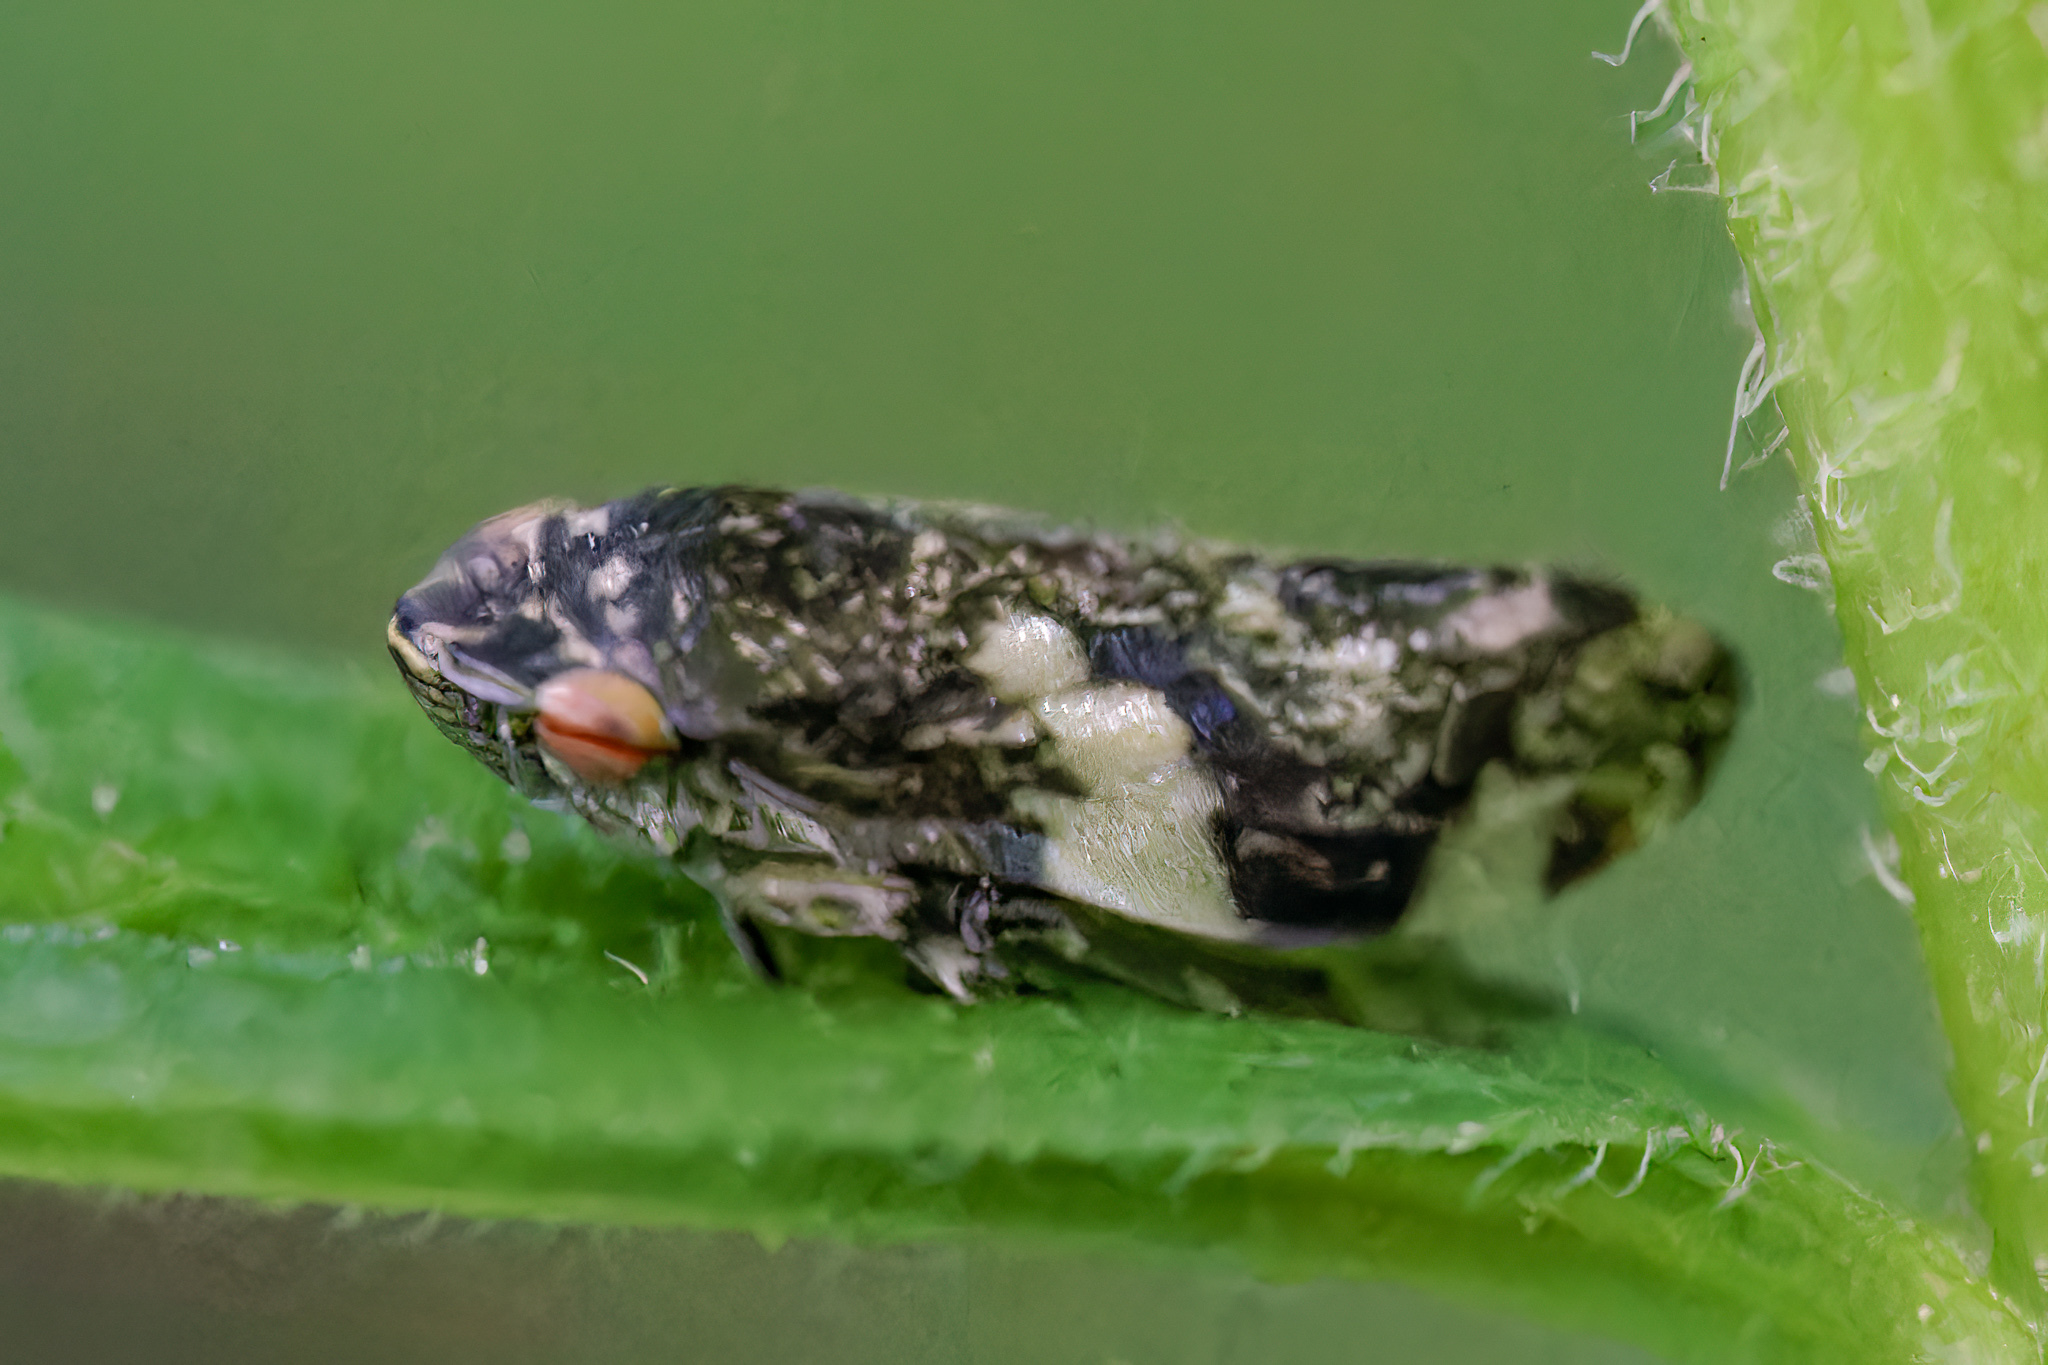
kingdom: Animalia
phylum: Arthropoda
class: Insecta
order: Hemiptera
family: Aphrophoridae
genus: Philaenus
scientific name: Philaenus spumarius
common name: Meadow spittlebug
